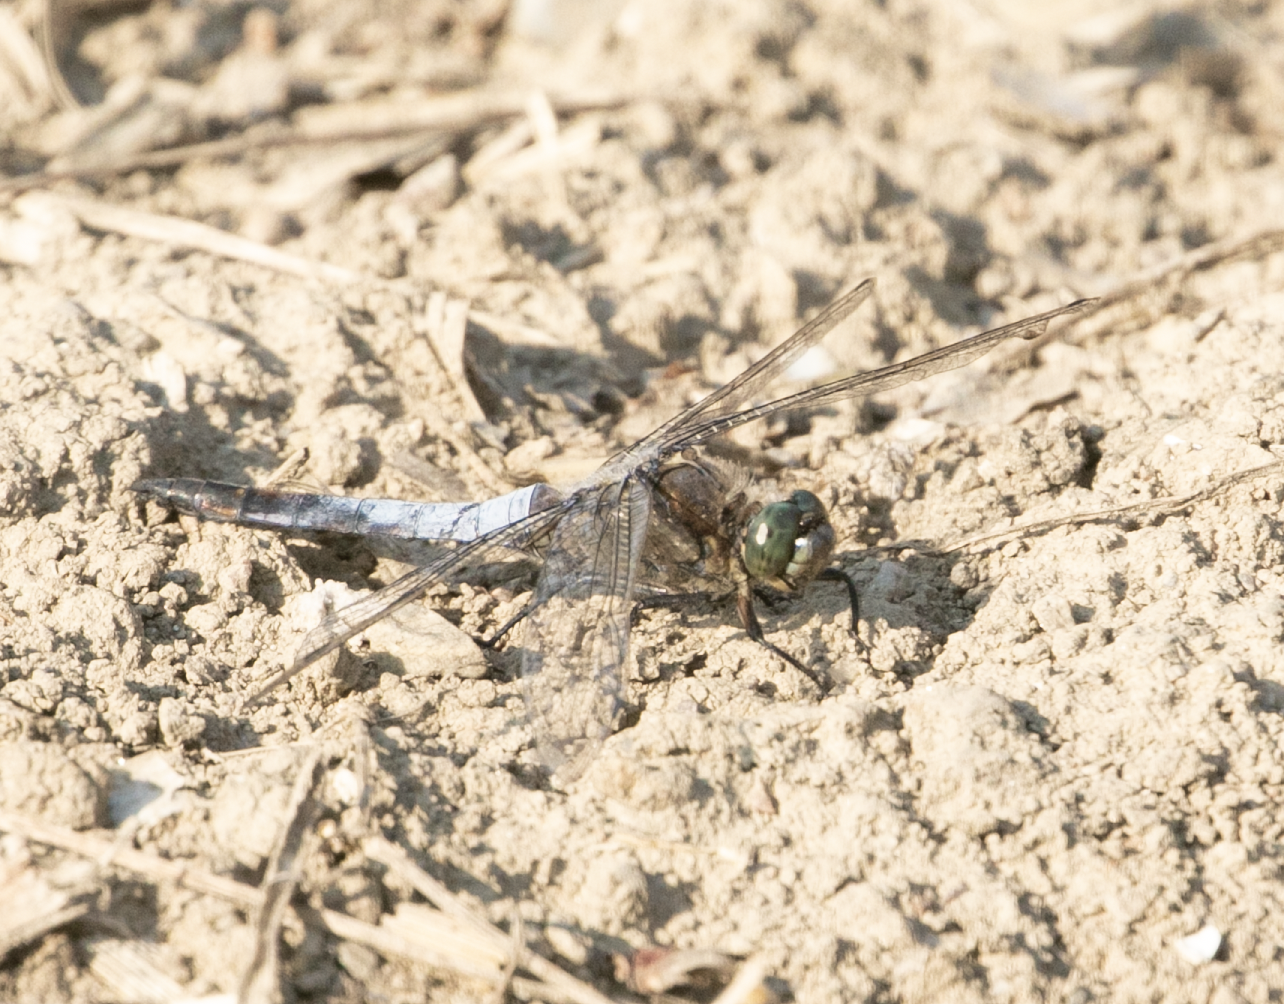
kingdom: Animalia
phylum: Arthropoda
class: Insecta
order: Odonata
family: Libellulidae
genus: Orthetrum
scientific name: Orthetrum cancellatum
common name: Black-tailed skimmer
